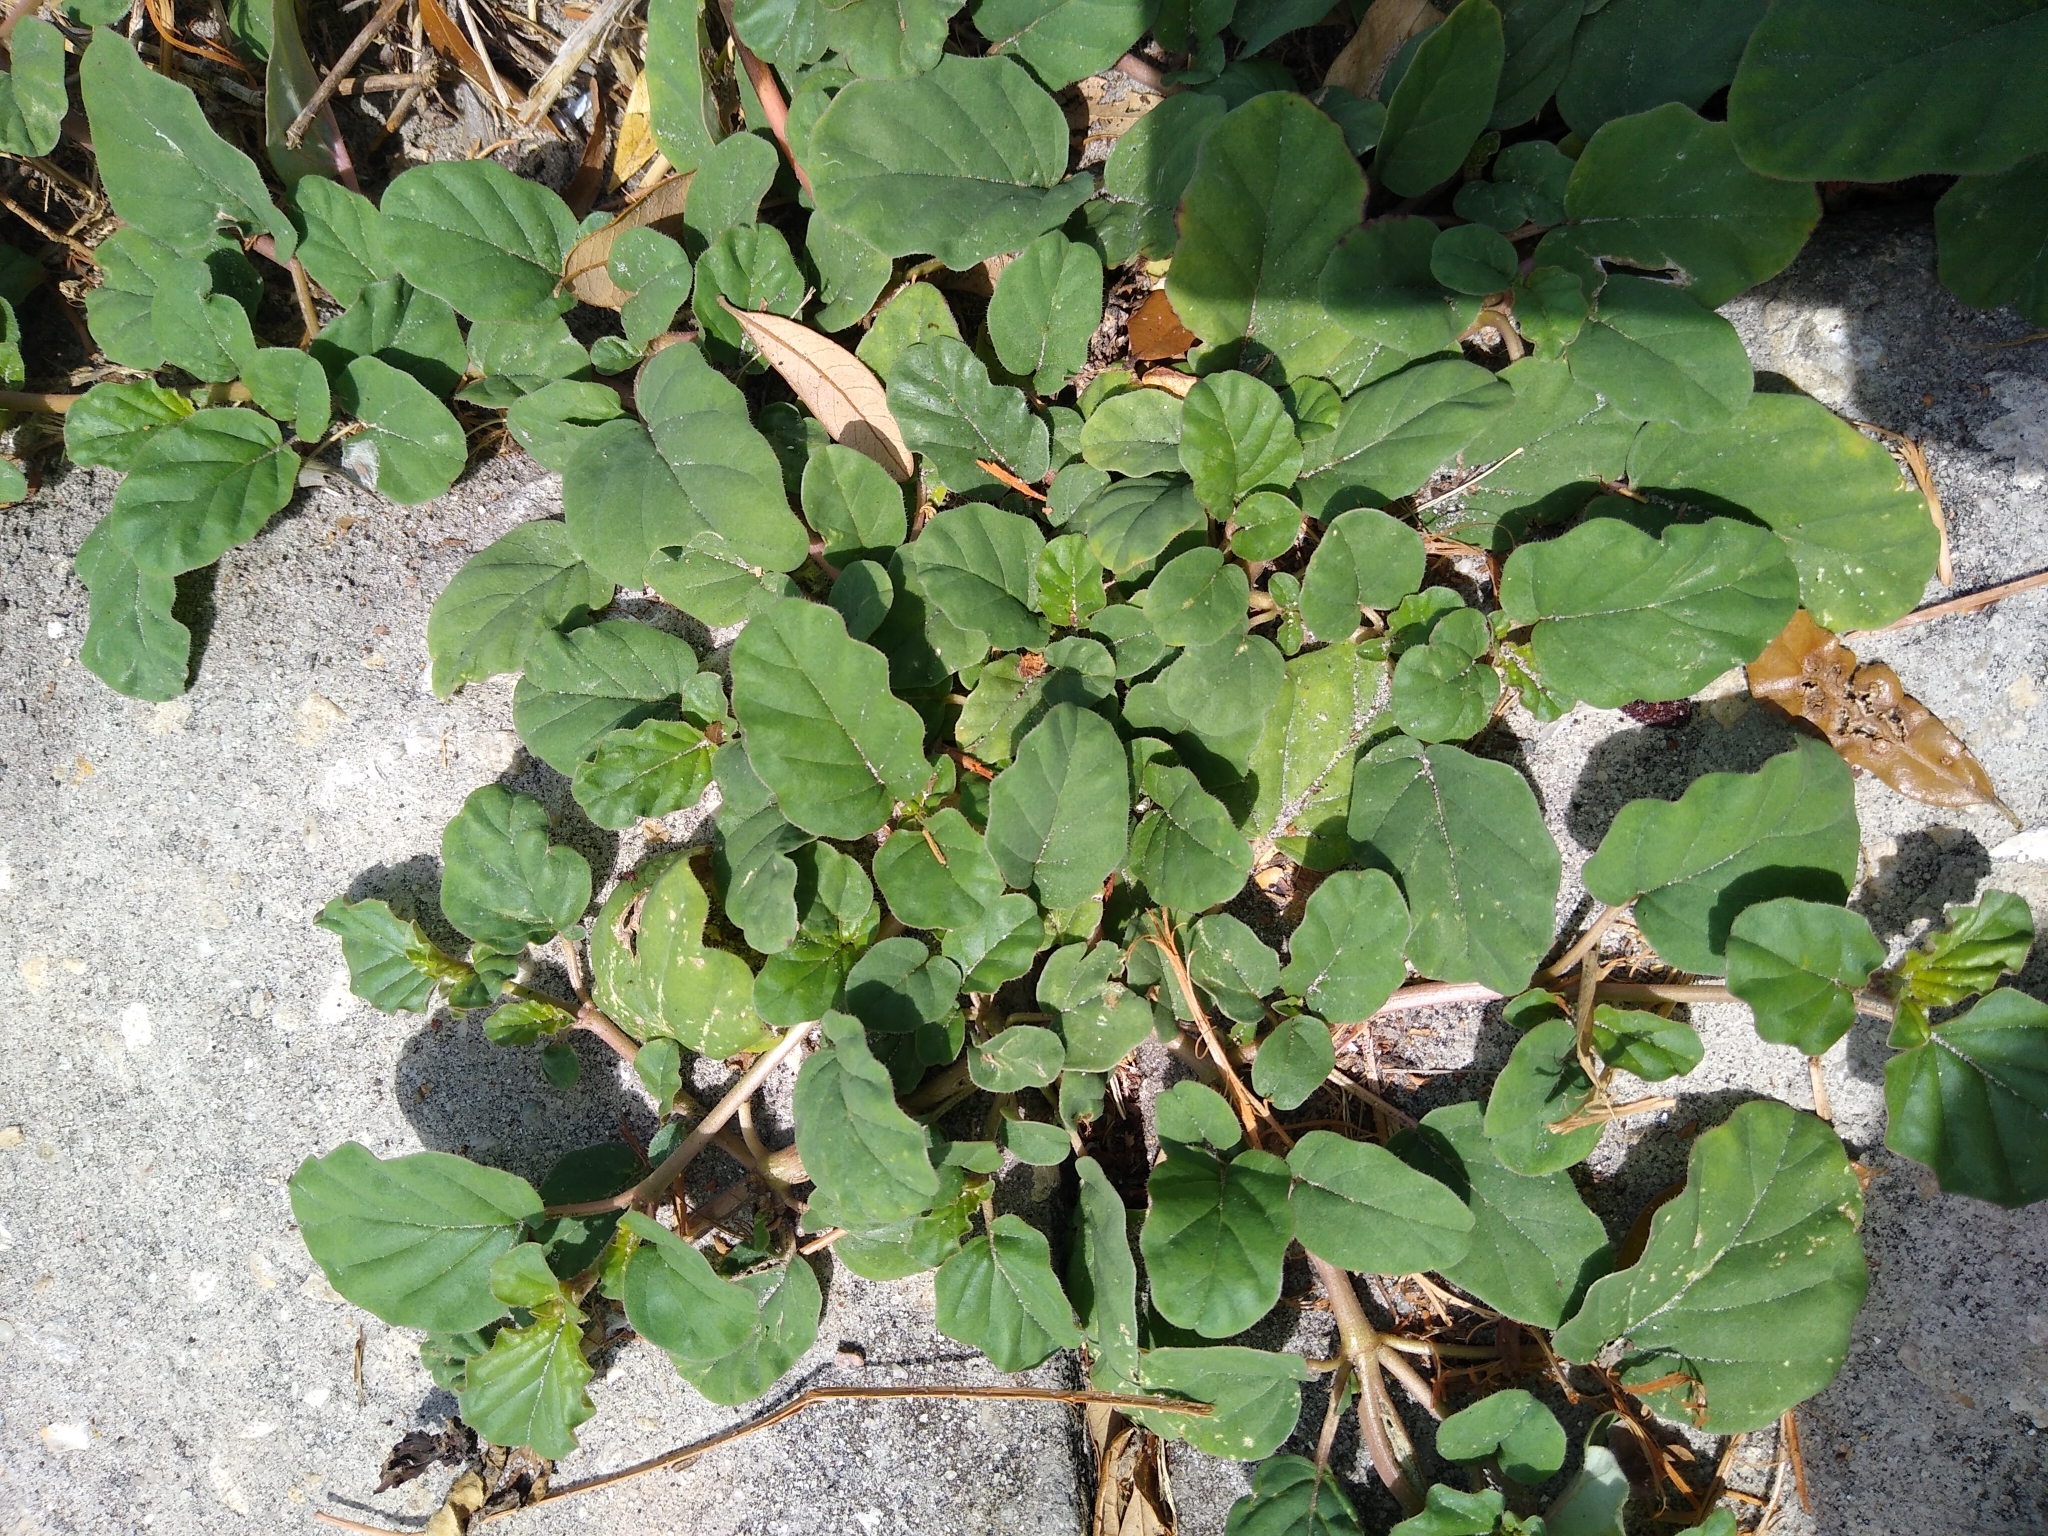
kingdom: Plantae
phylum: Tracheophyta
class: Magnoliopsida
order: Caryophyllales
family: Nyctaginaceae
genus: Boerhavia
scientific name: Boerhavia diffusa
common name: Red spiderling
